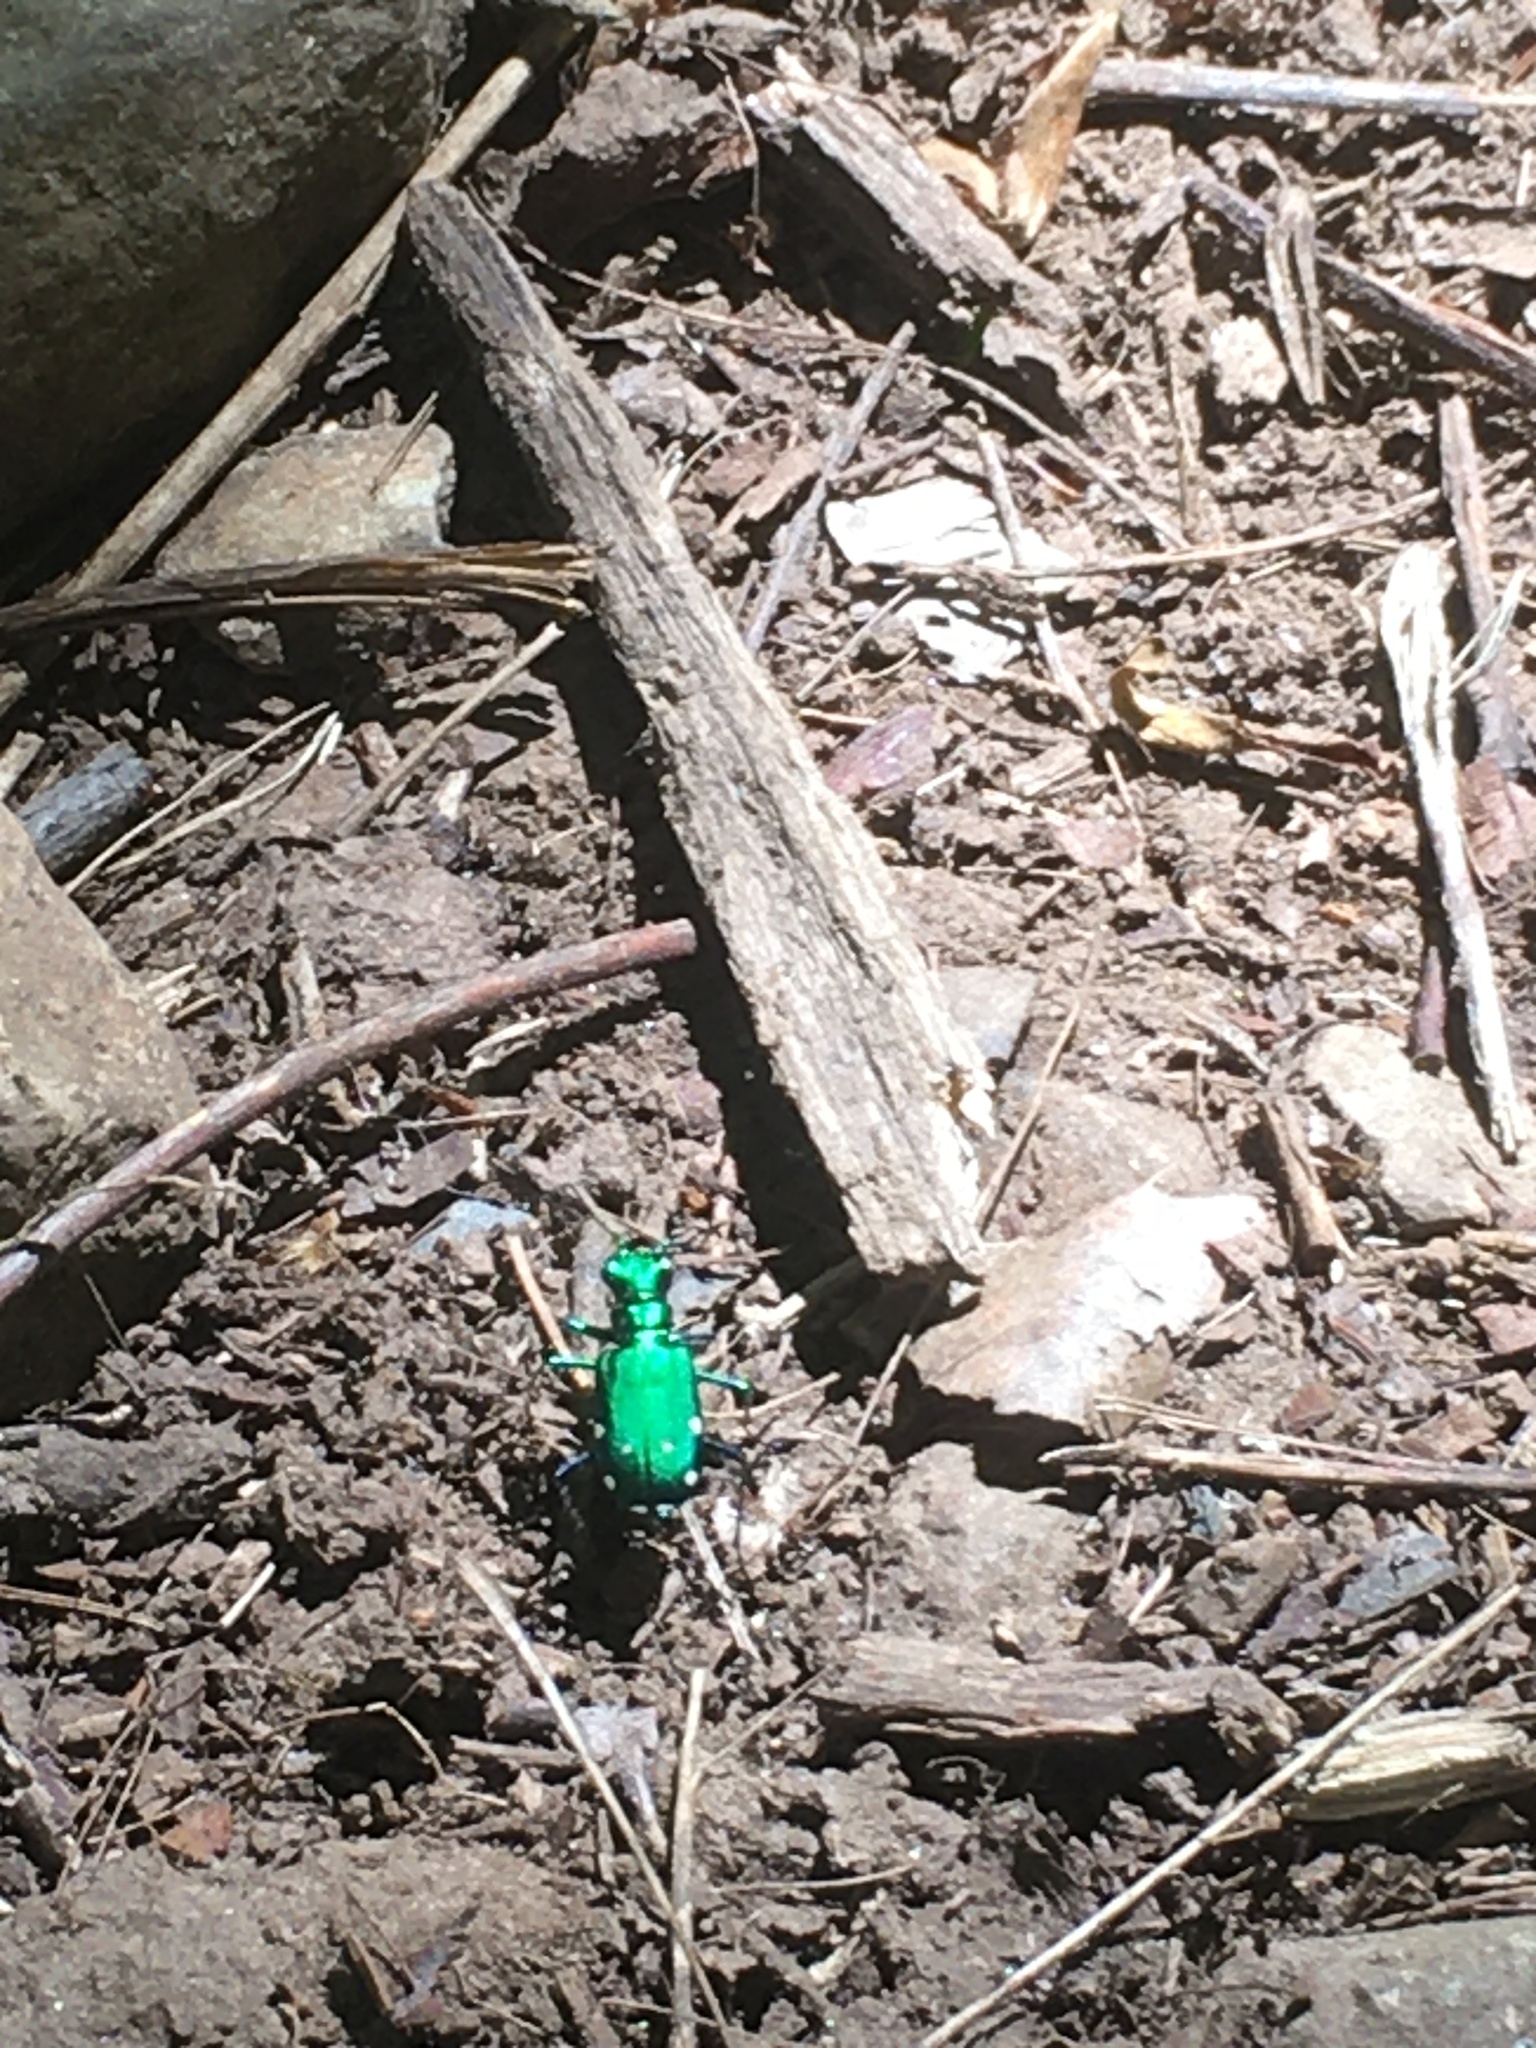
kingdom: Animalia
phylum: Arthropoda
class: Insecta
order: Coleoptera
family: Carabidae
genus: Cicindela
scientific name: Cicindela sexguttata
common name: Six-spotted tiger beetle
